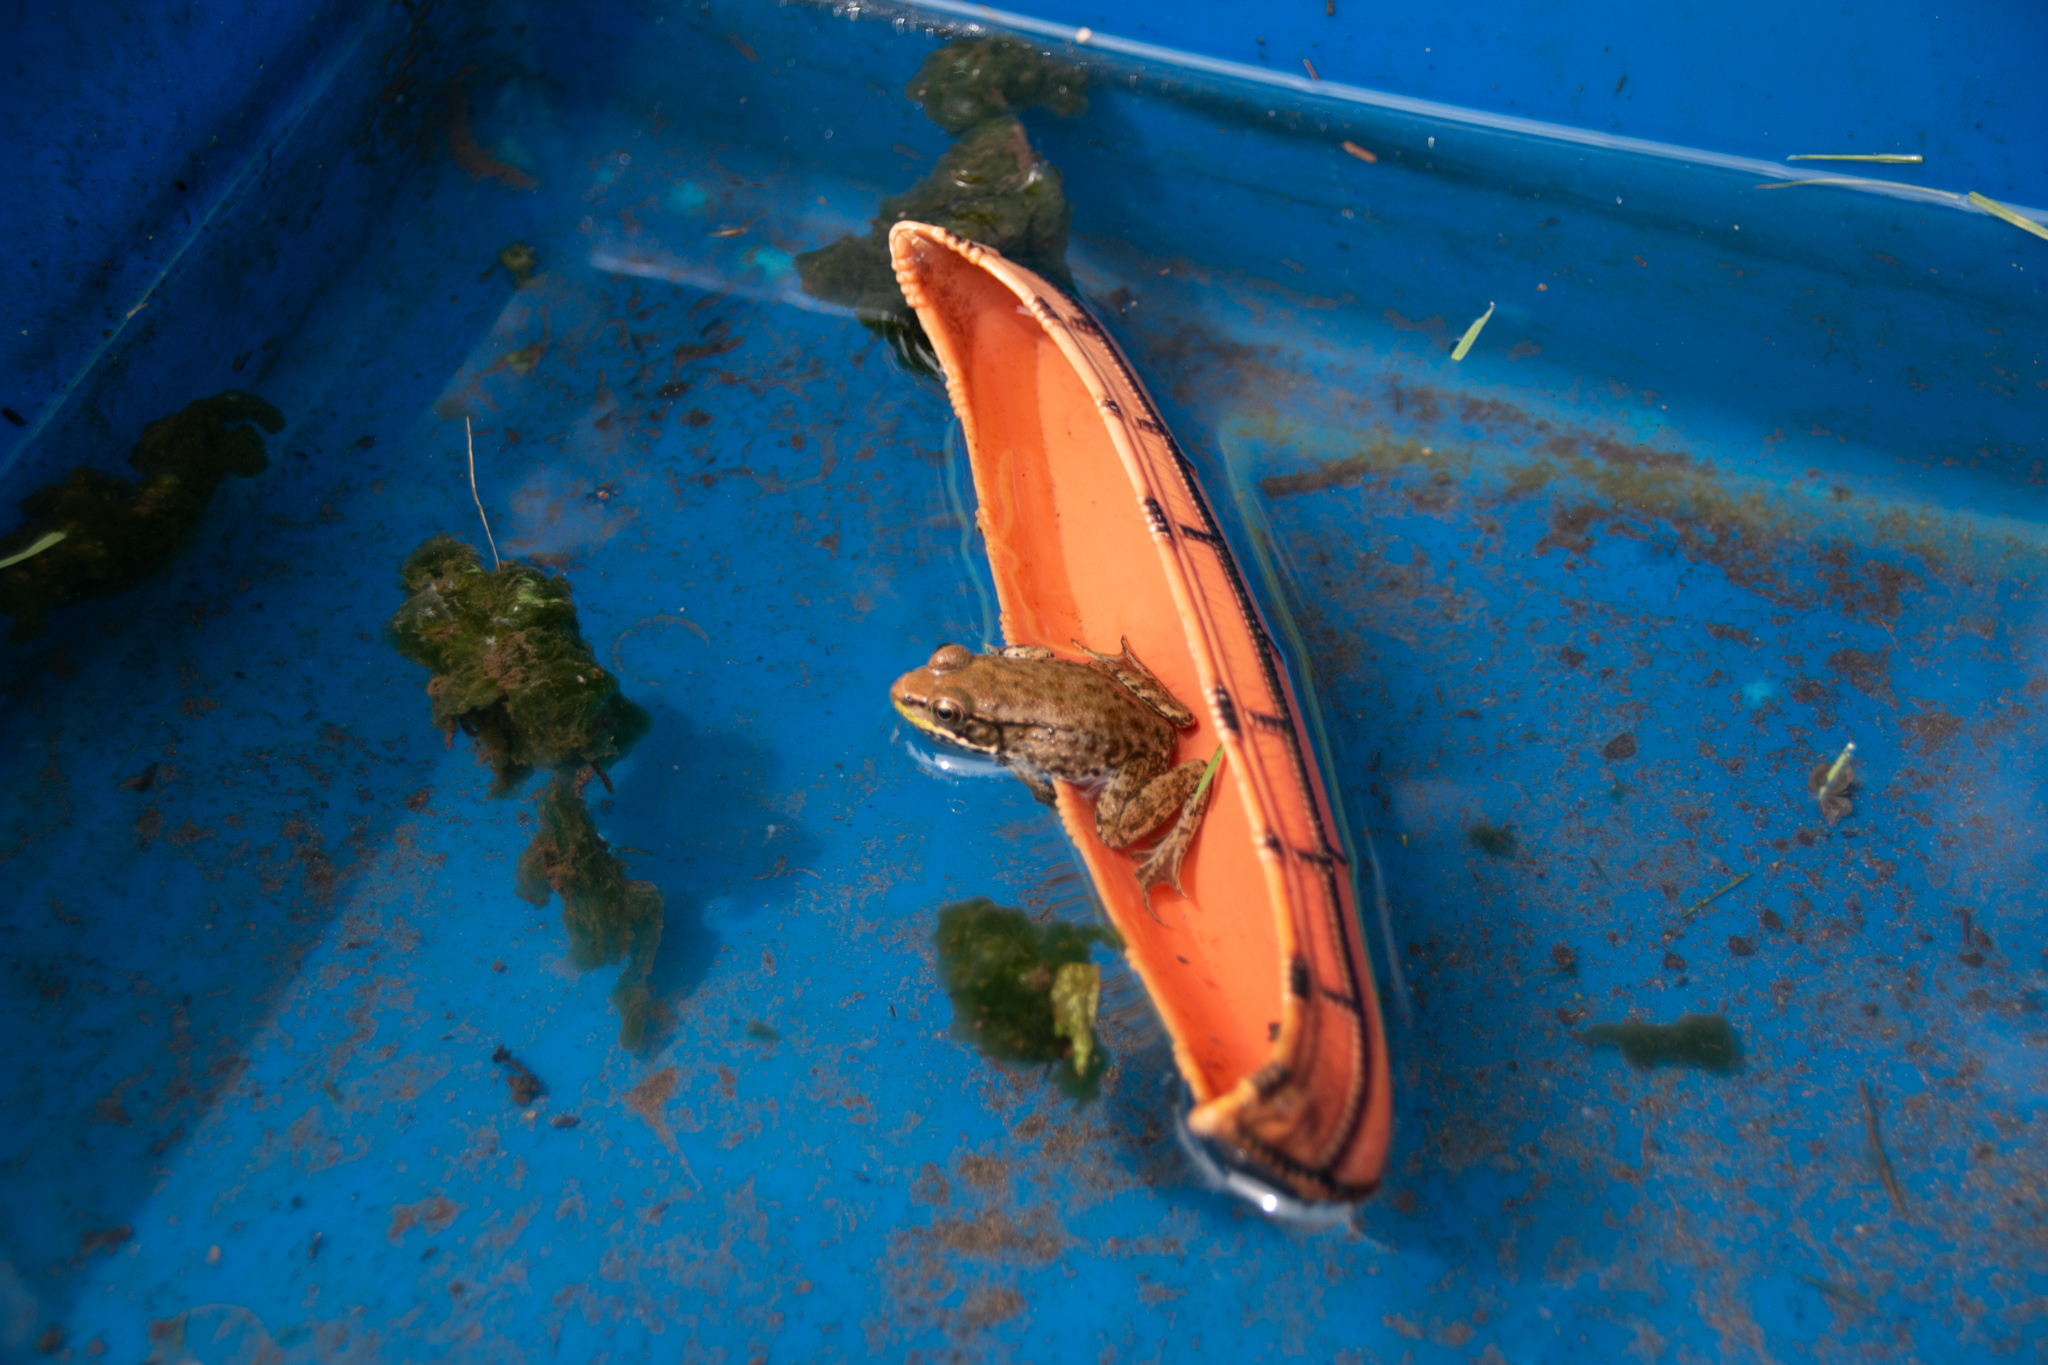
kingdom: Animalia
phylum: Chordata
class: Amphibia
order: Anura
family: Ranidae
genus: Lithobates
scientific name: Lithobates clamitans
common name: Green frog
